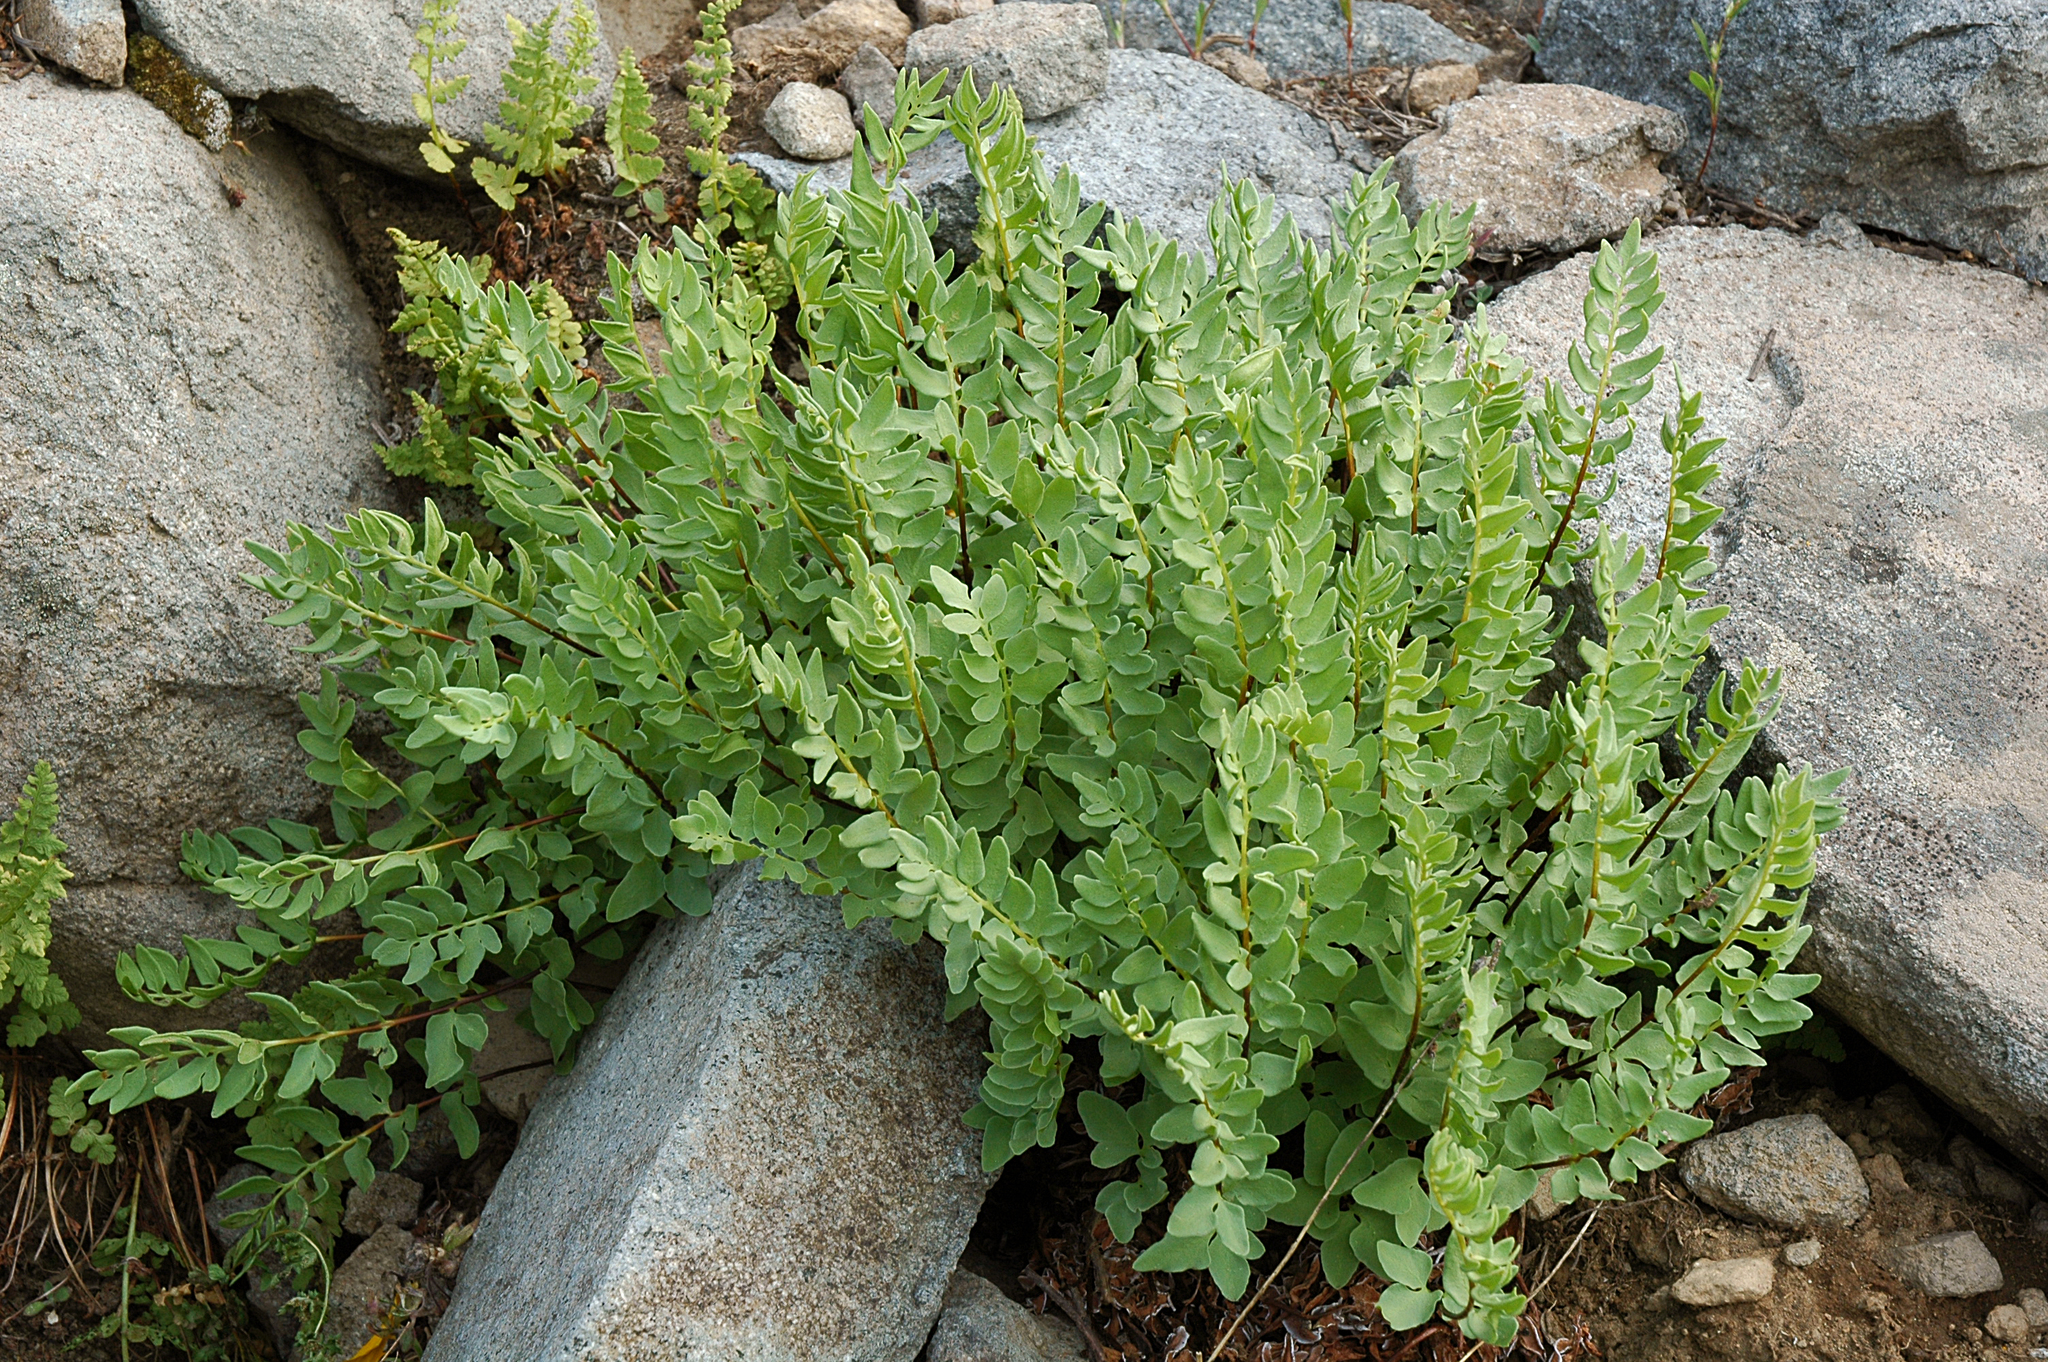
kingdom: Plantae
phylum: Tracheophyta
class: Polypodiopsida
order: Polypodiales
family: Pteridaceae
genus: Pellaea
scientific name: Pellaea breweri
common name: Brewer's cliffbrake
